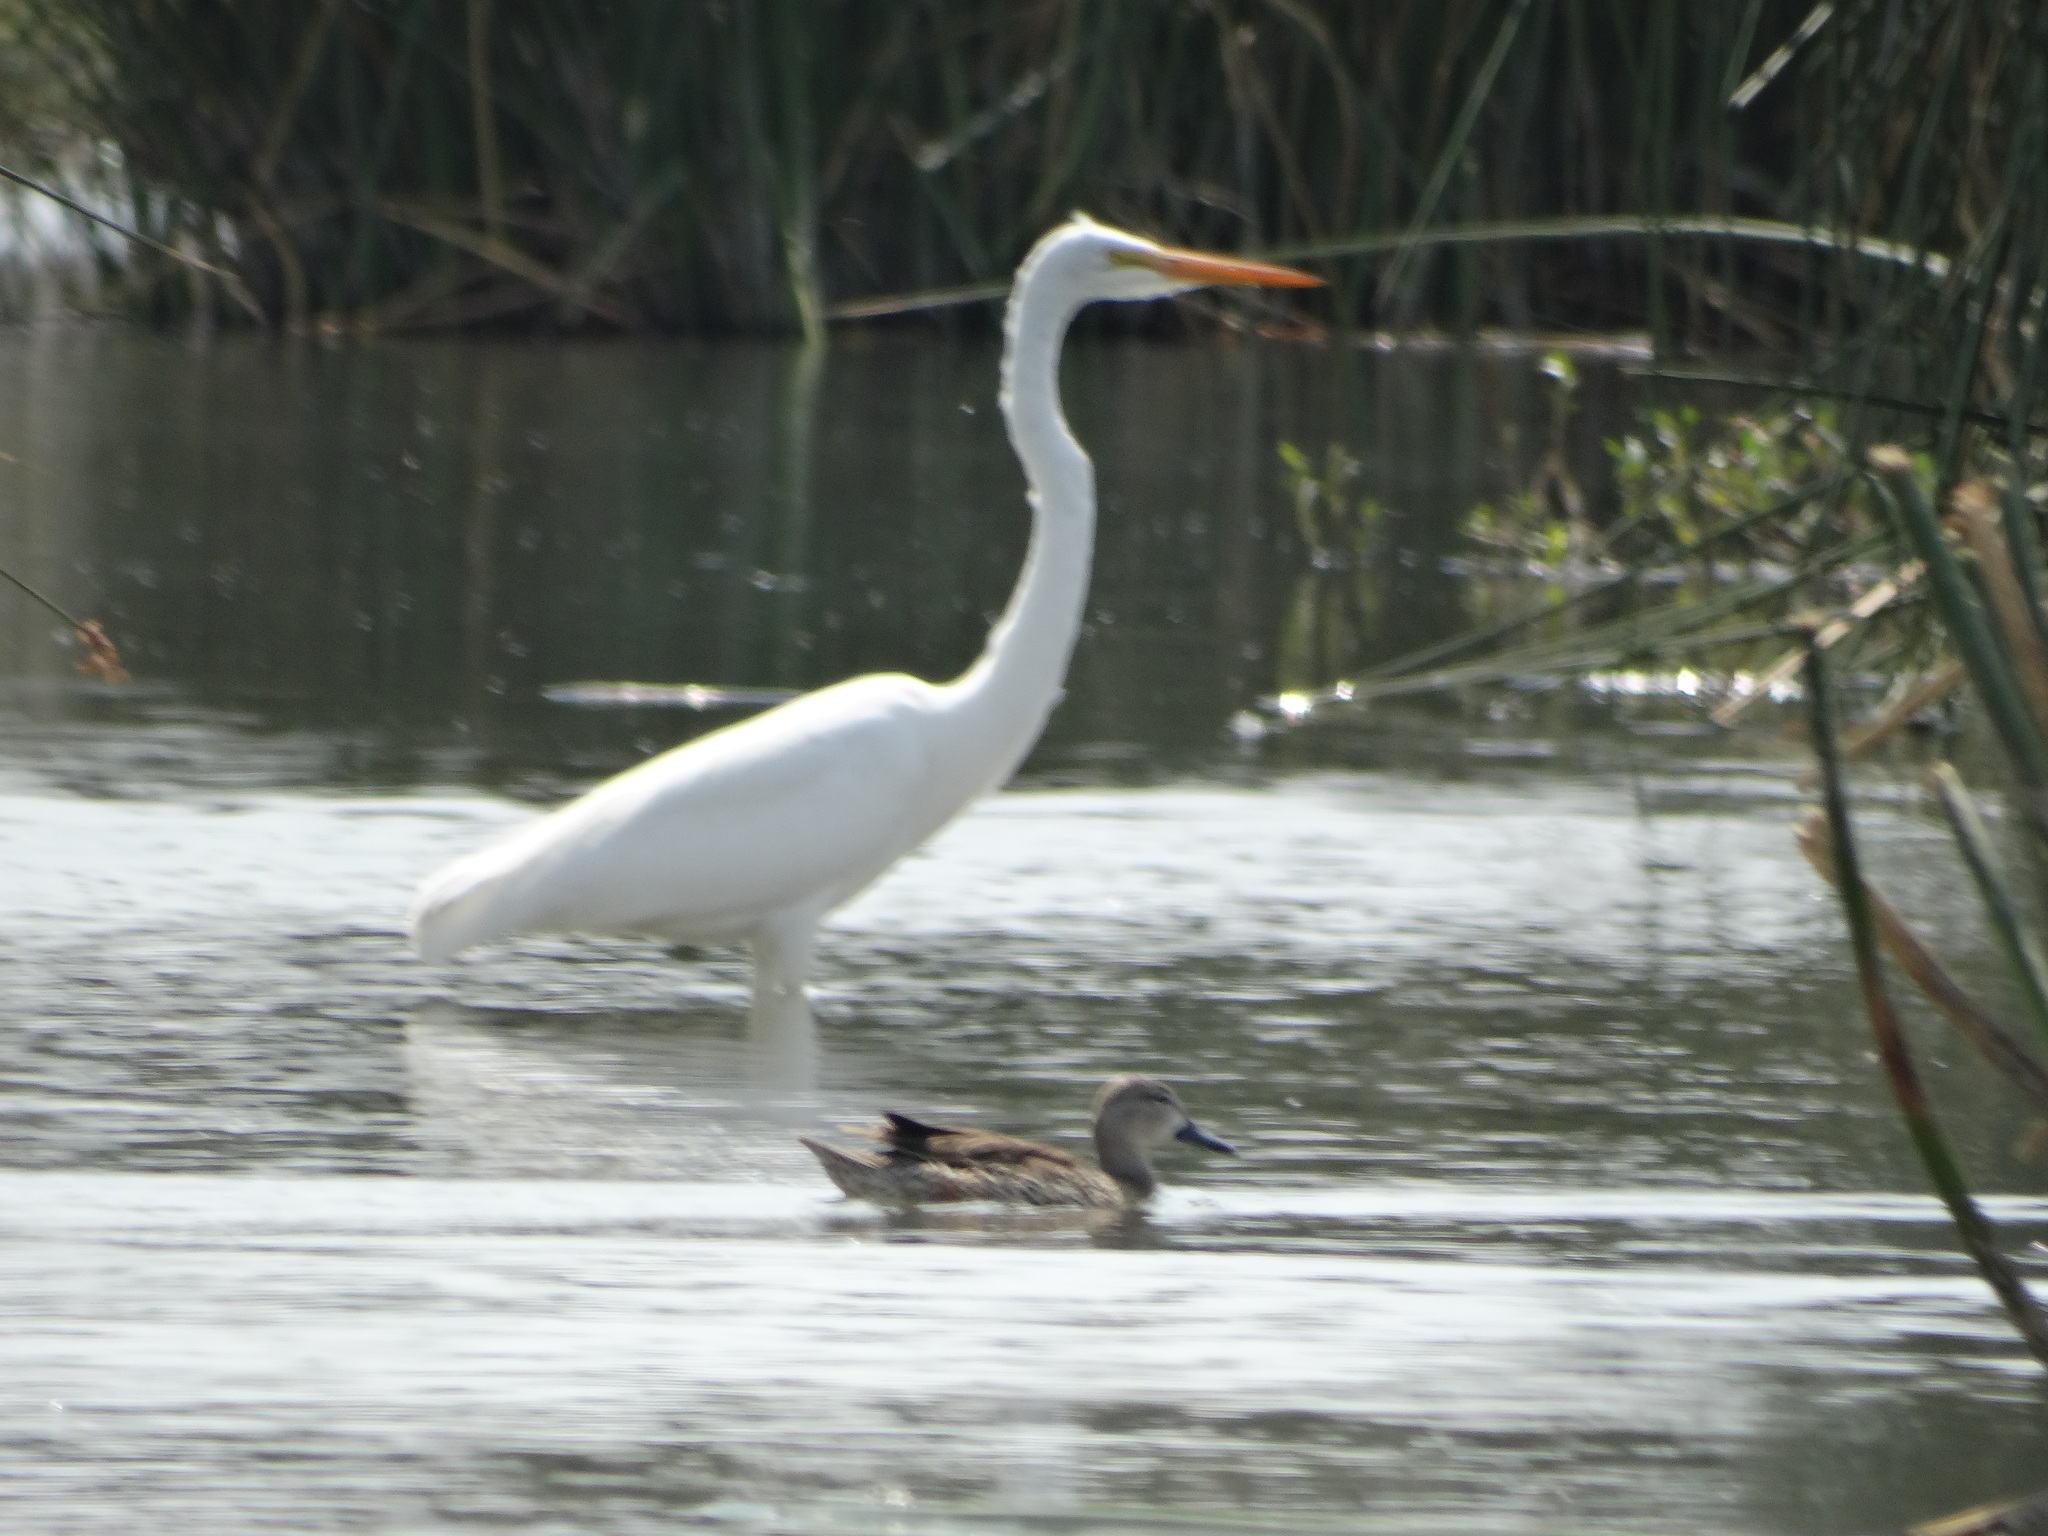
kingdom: Animalia
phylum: Chordata
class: Aves
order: Pelecaniformes
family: Ardeidae
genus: Ardea
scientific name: Ardea alba
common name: Great egret
